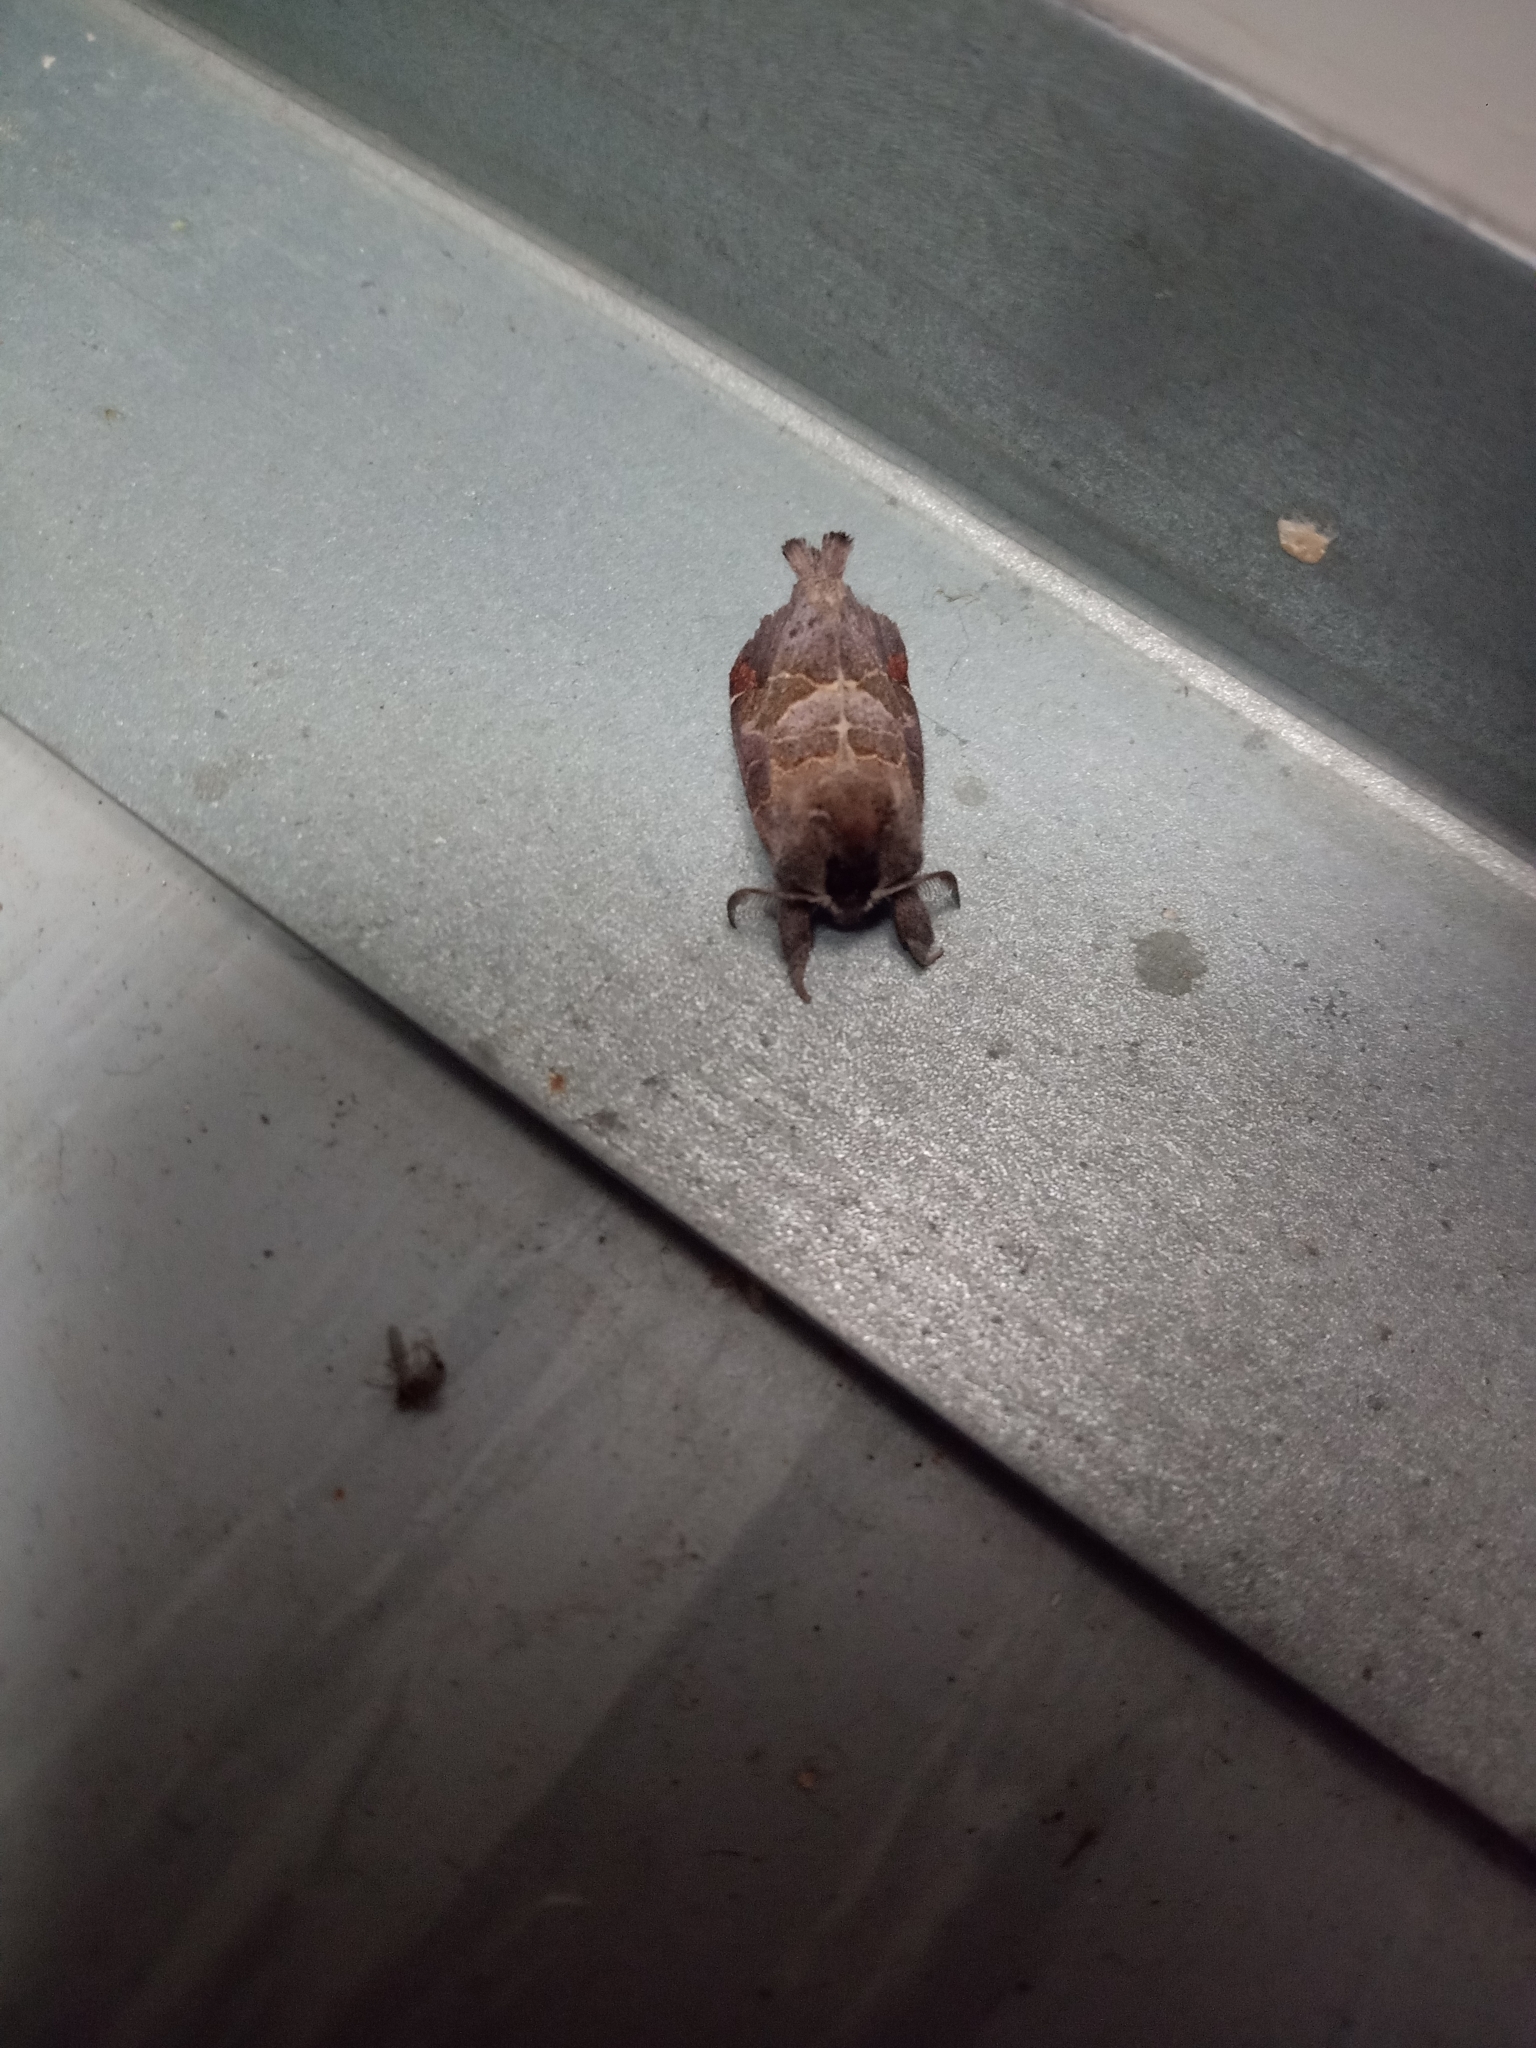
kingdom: Animalia
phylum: Arthropoda
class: Insecta
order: Lepidoptera
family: Notodontidae
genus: Clostera
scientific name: Clostera pigra
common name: Small chocolate-tip
